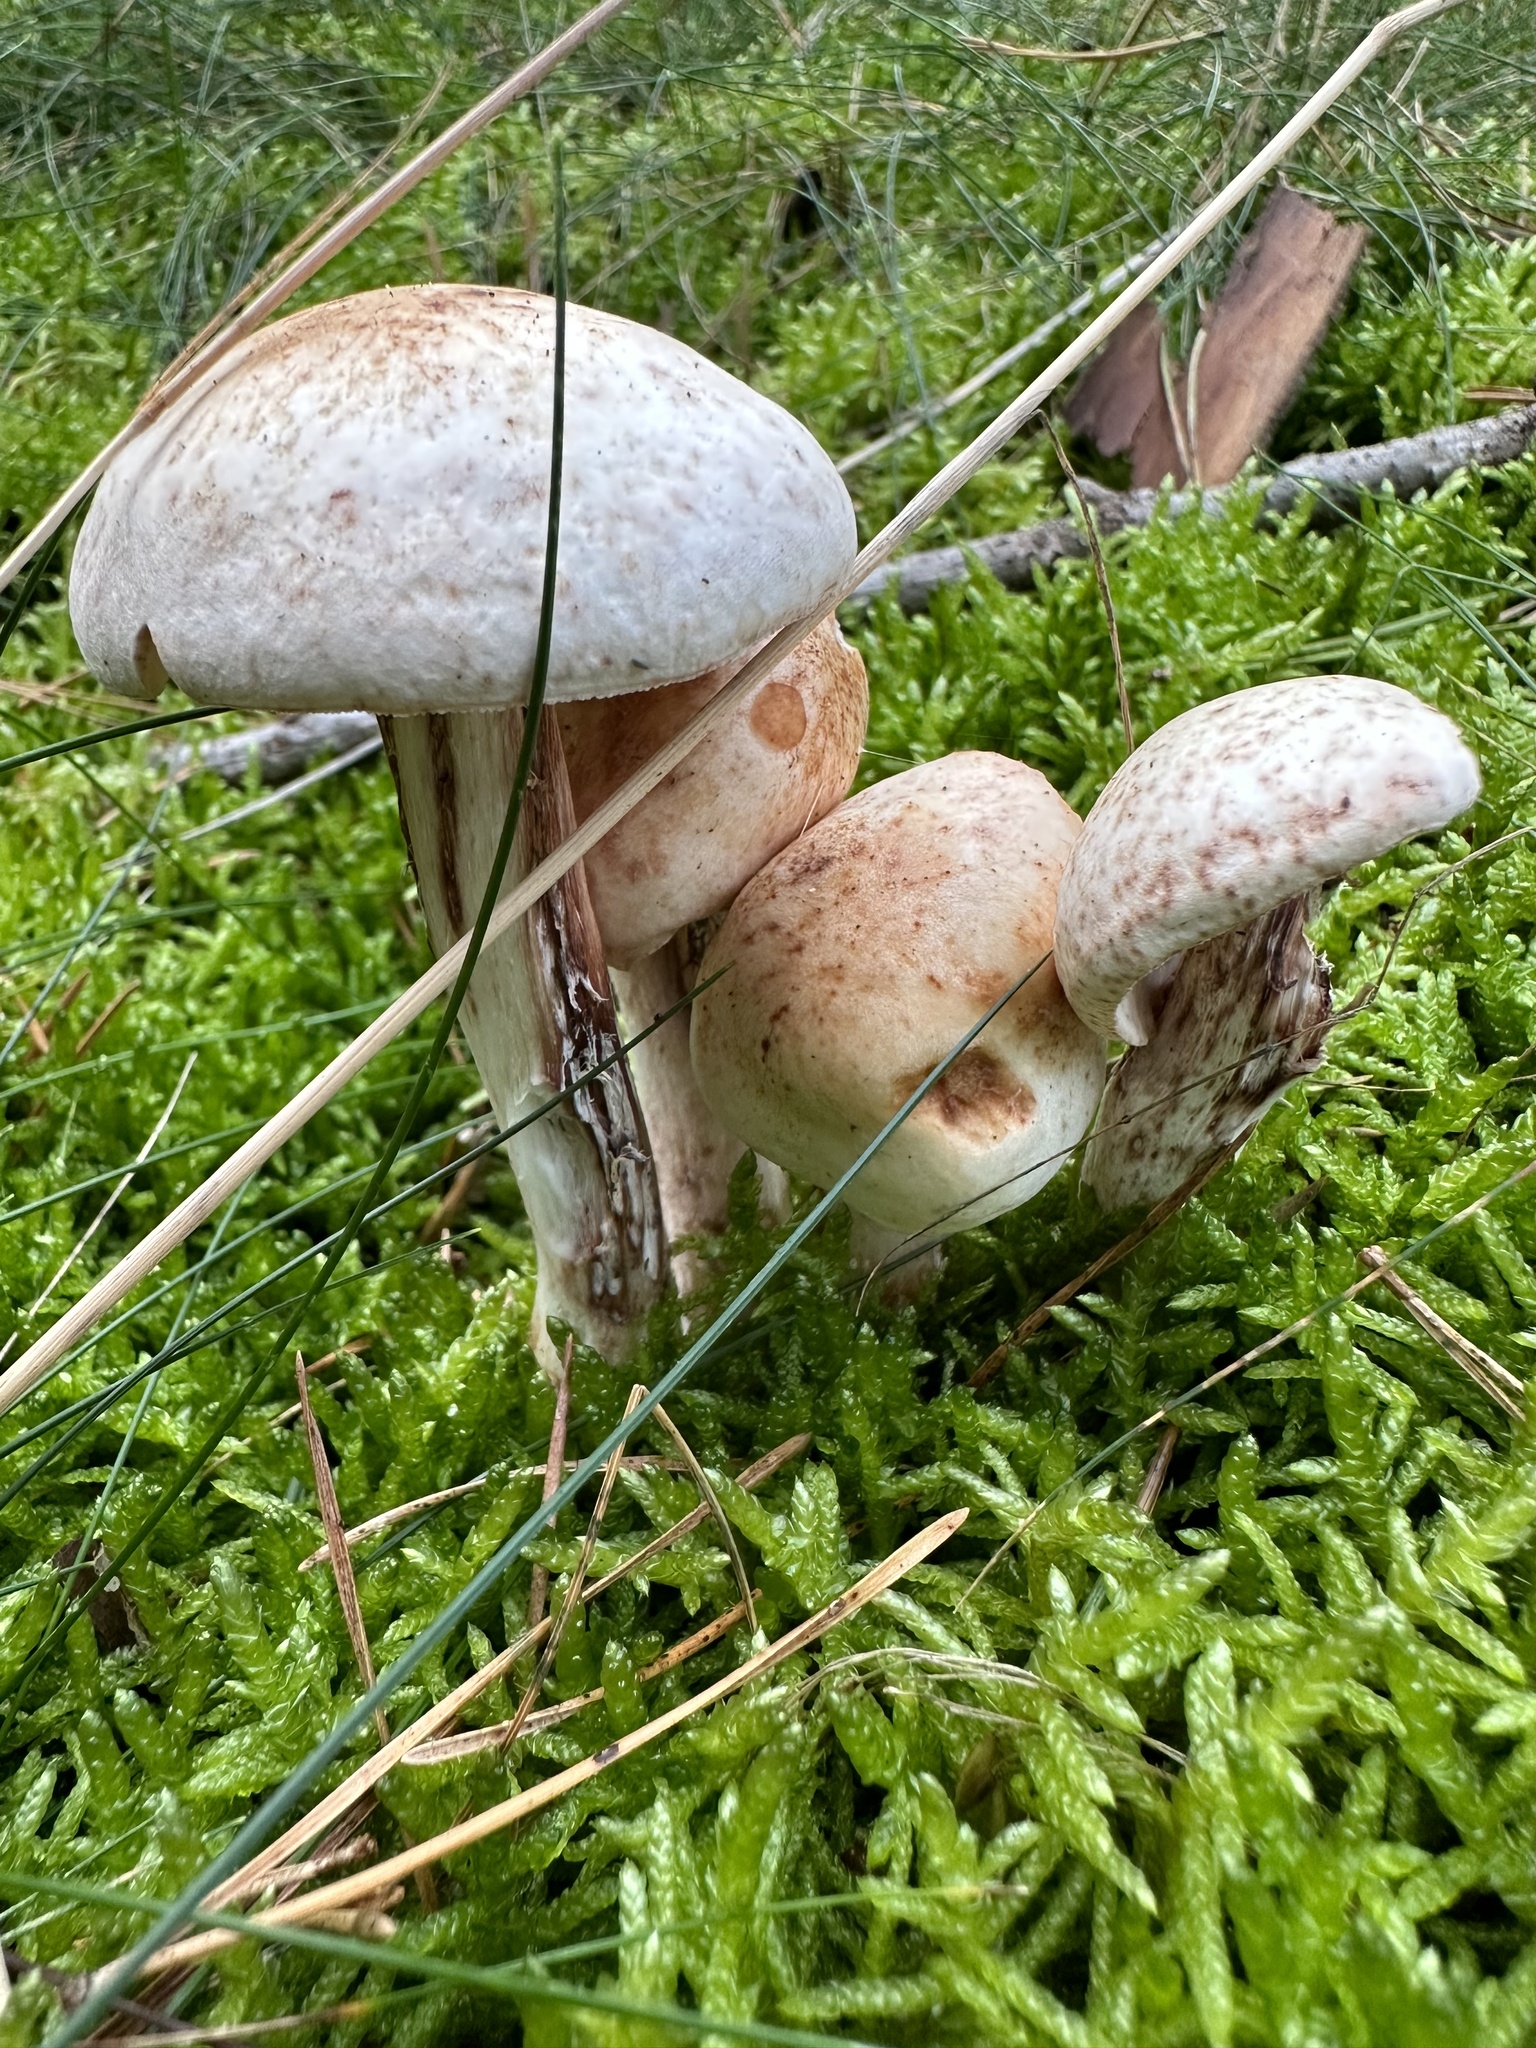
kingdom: Fungi
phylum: Basidiomycota
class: Agaricomycetes
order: Agaricales
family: Omphalotaceae
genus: Rhodocollybia
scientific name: Rhodocollybia maculata
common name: Spotted tough-shank
